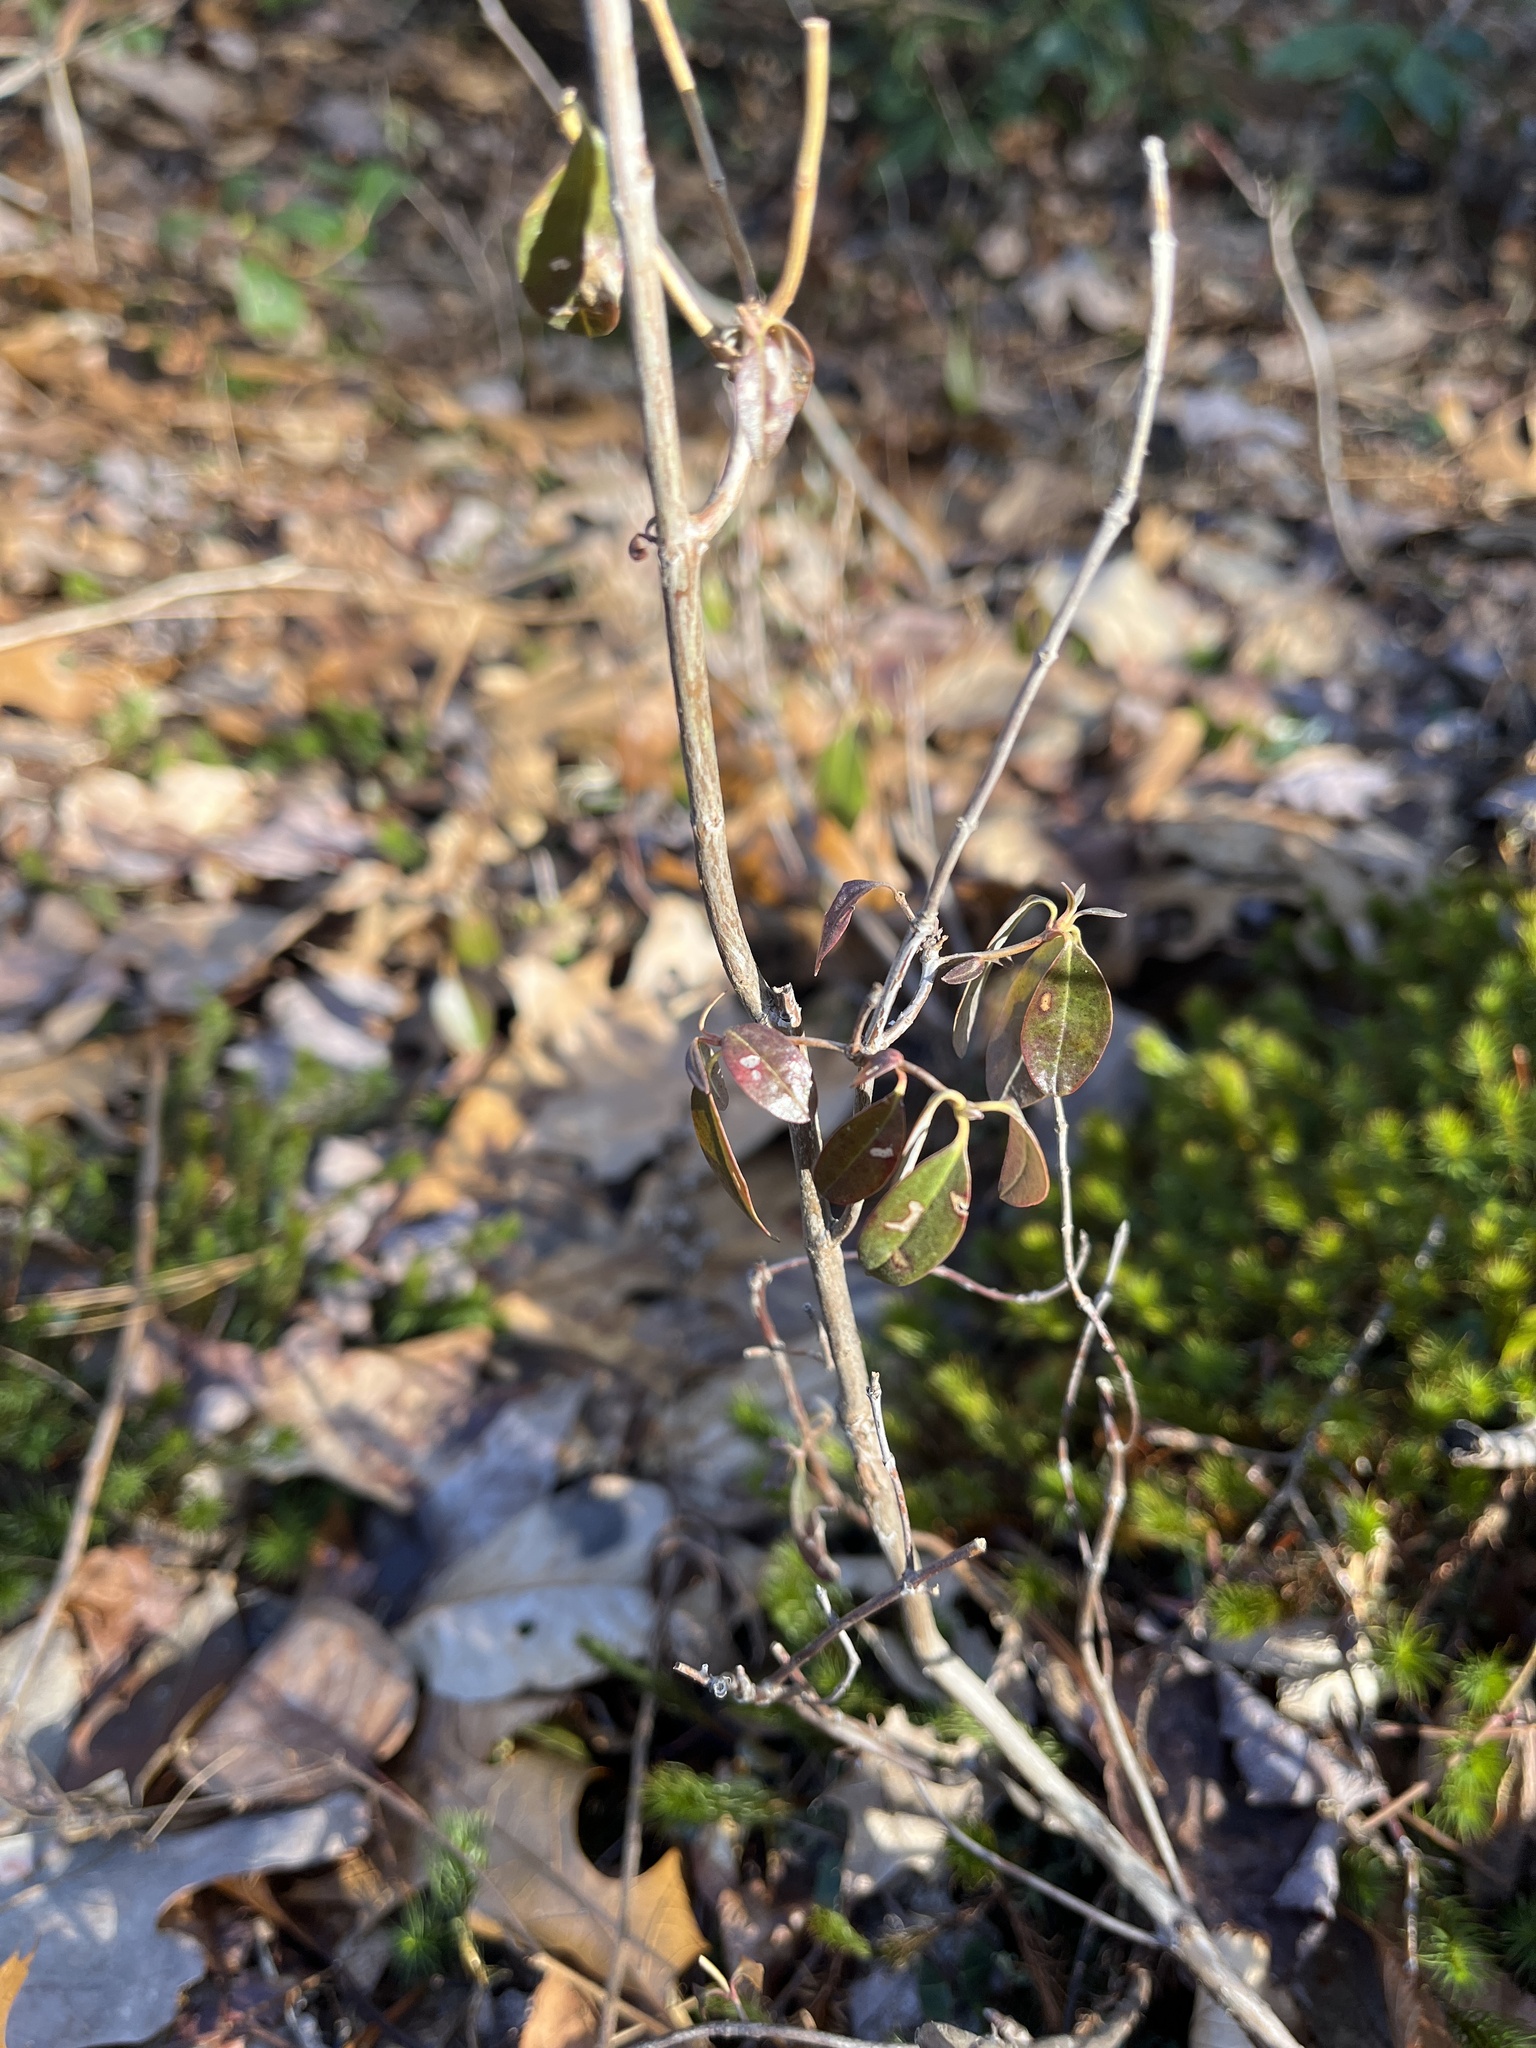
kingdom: Plantae
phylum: Tracheophyta
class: Magnoliopsida
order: Ericales
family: Ericaceae
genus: Kalmia
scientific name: Kalmia angustifolia
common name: Sheep-laurel
